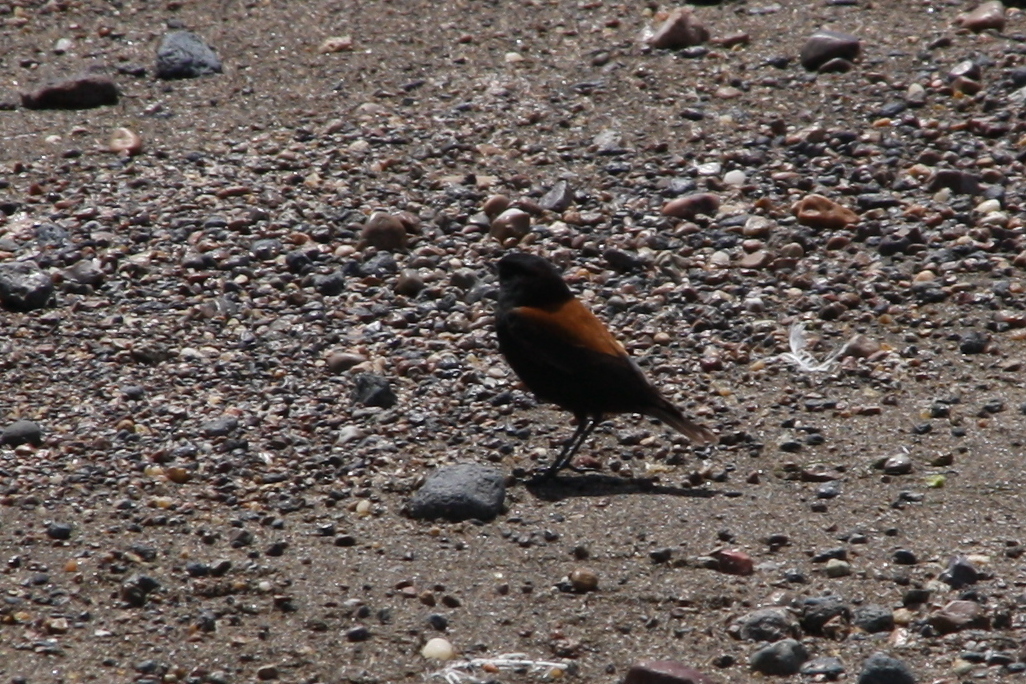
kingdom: Animalia
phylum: Chordata
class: Aves
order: Passeriformes
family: Tyrannidae
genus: Lessonia
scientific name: Lessonia rufa
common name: Austral negrito
